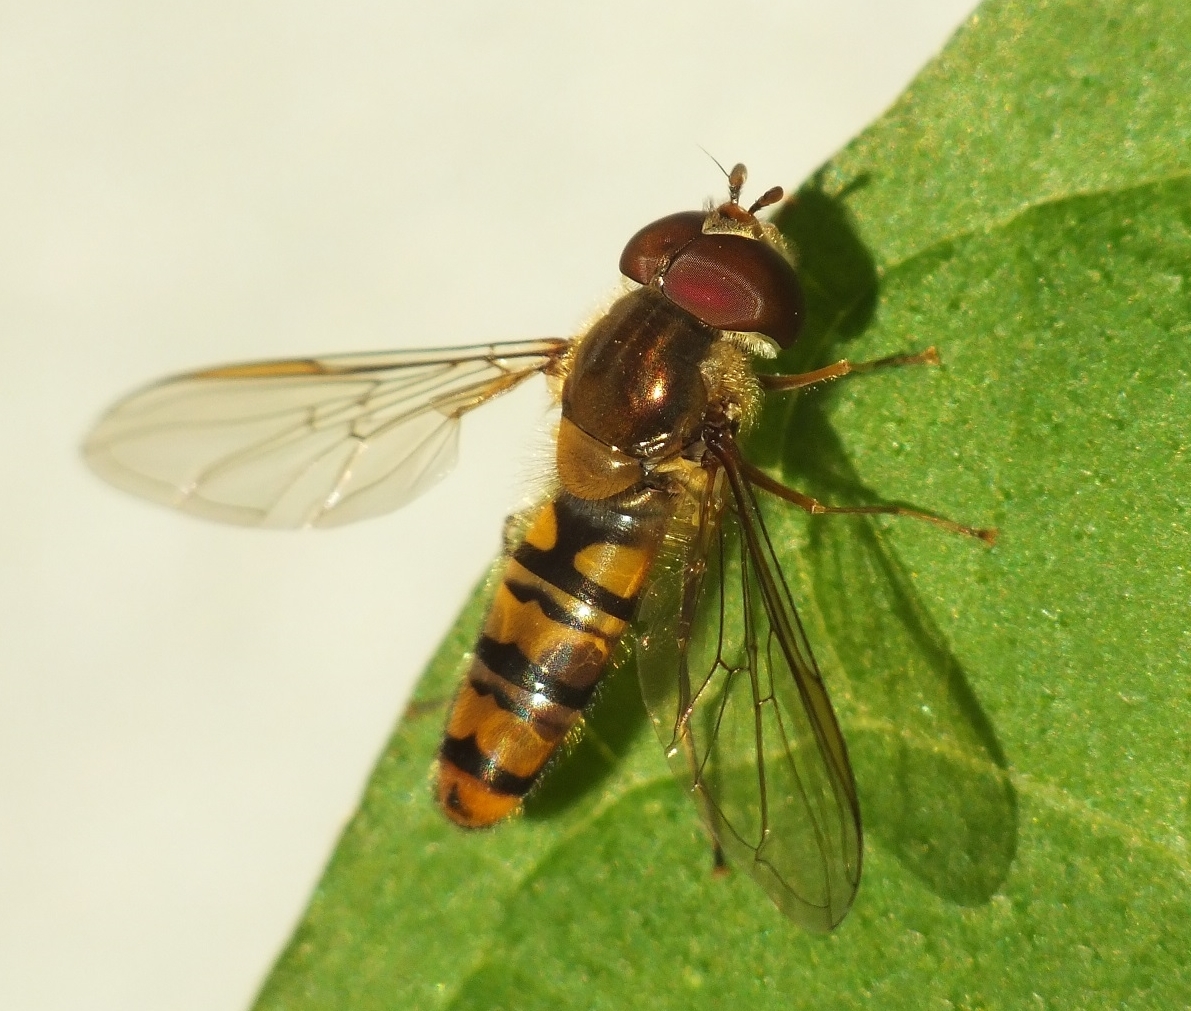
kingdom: Animalia
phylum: Arthropoda
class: Insecta
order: Diptera
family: Syrphidae
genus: Episyrphus
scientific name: Episyrphus balteatus
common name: Marmalade hoverfly
